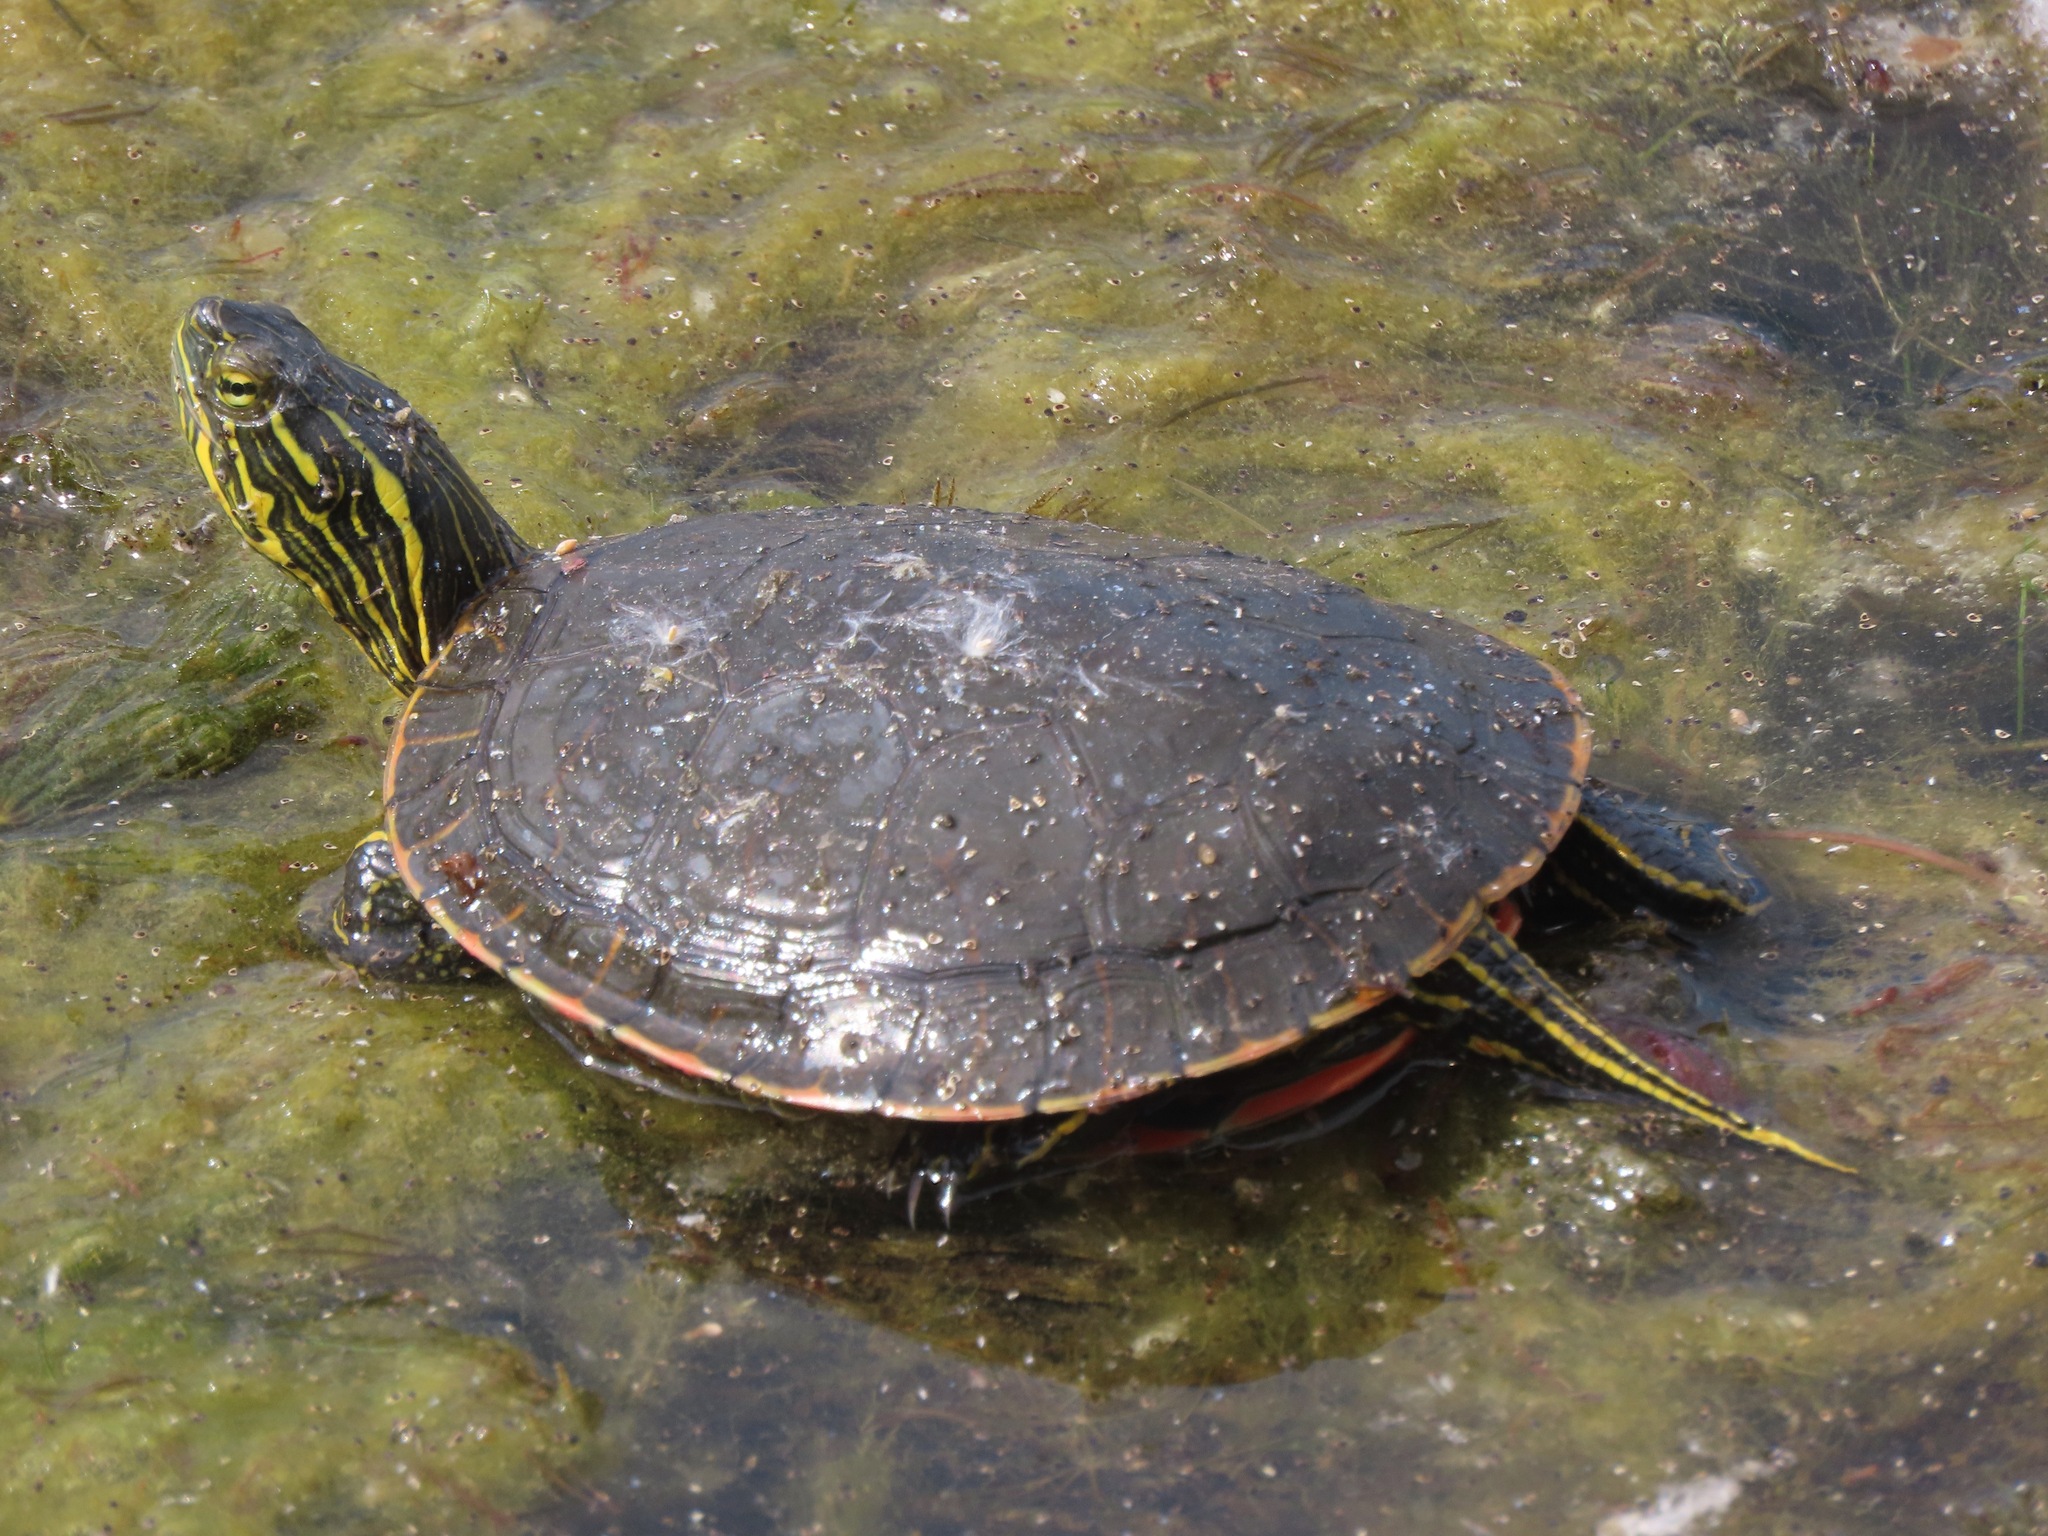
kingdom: Animalia
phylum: Chordata
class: Testudines
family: Emydidae
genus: Chrysemys
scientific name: Chrysemys picta
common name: Painted turtle
